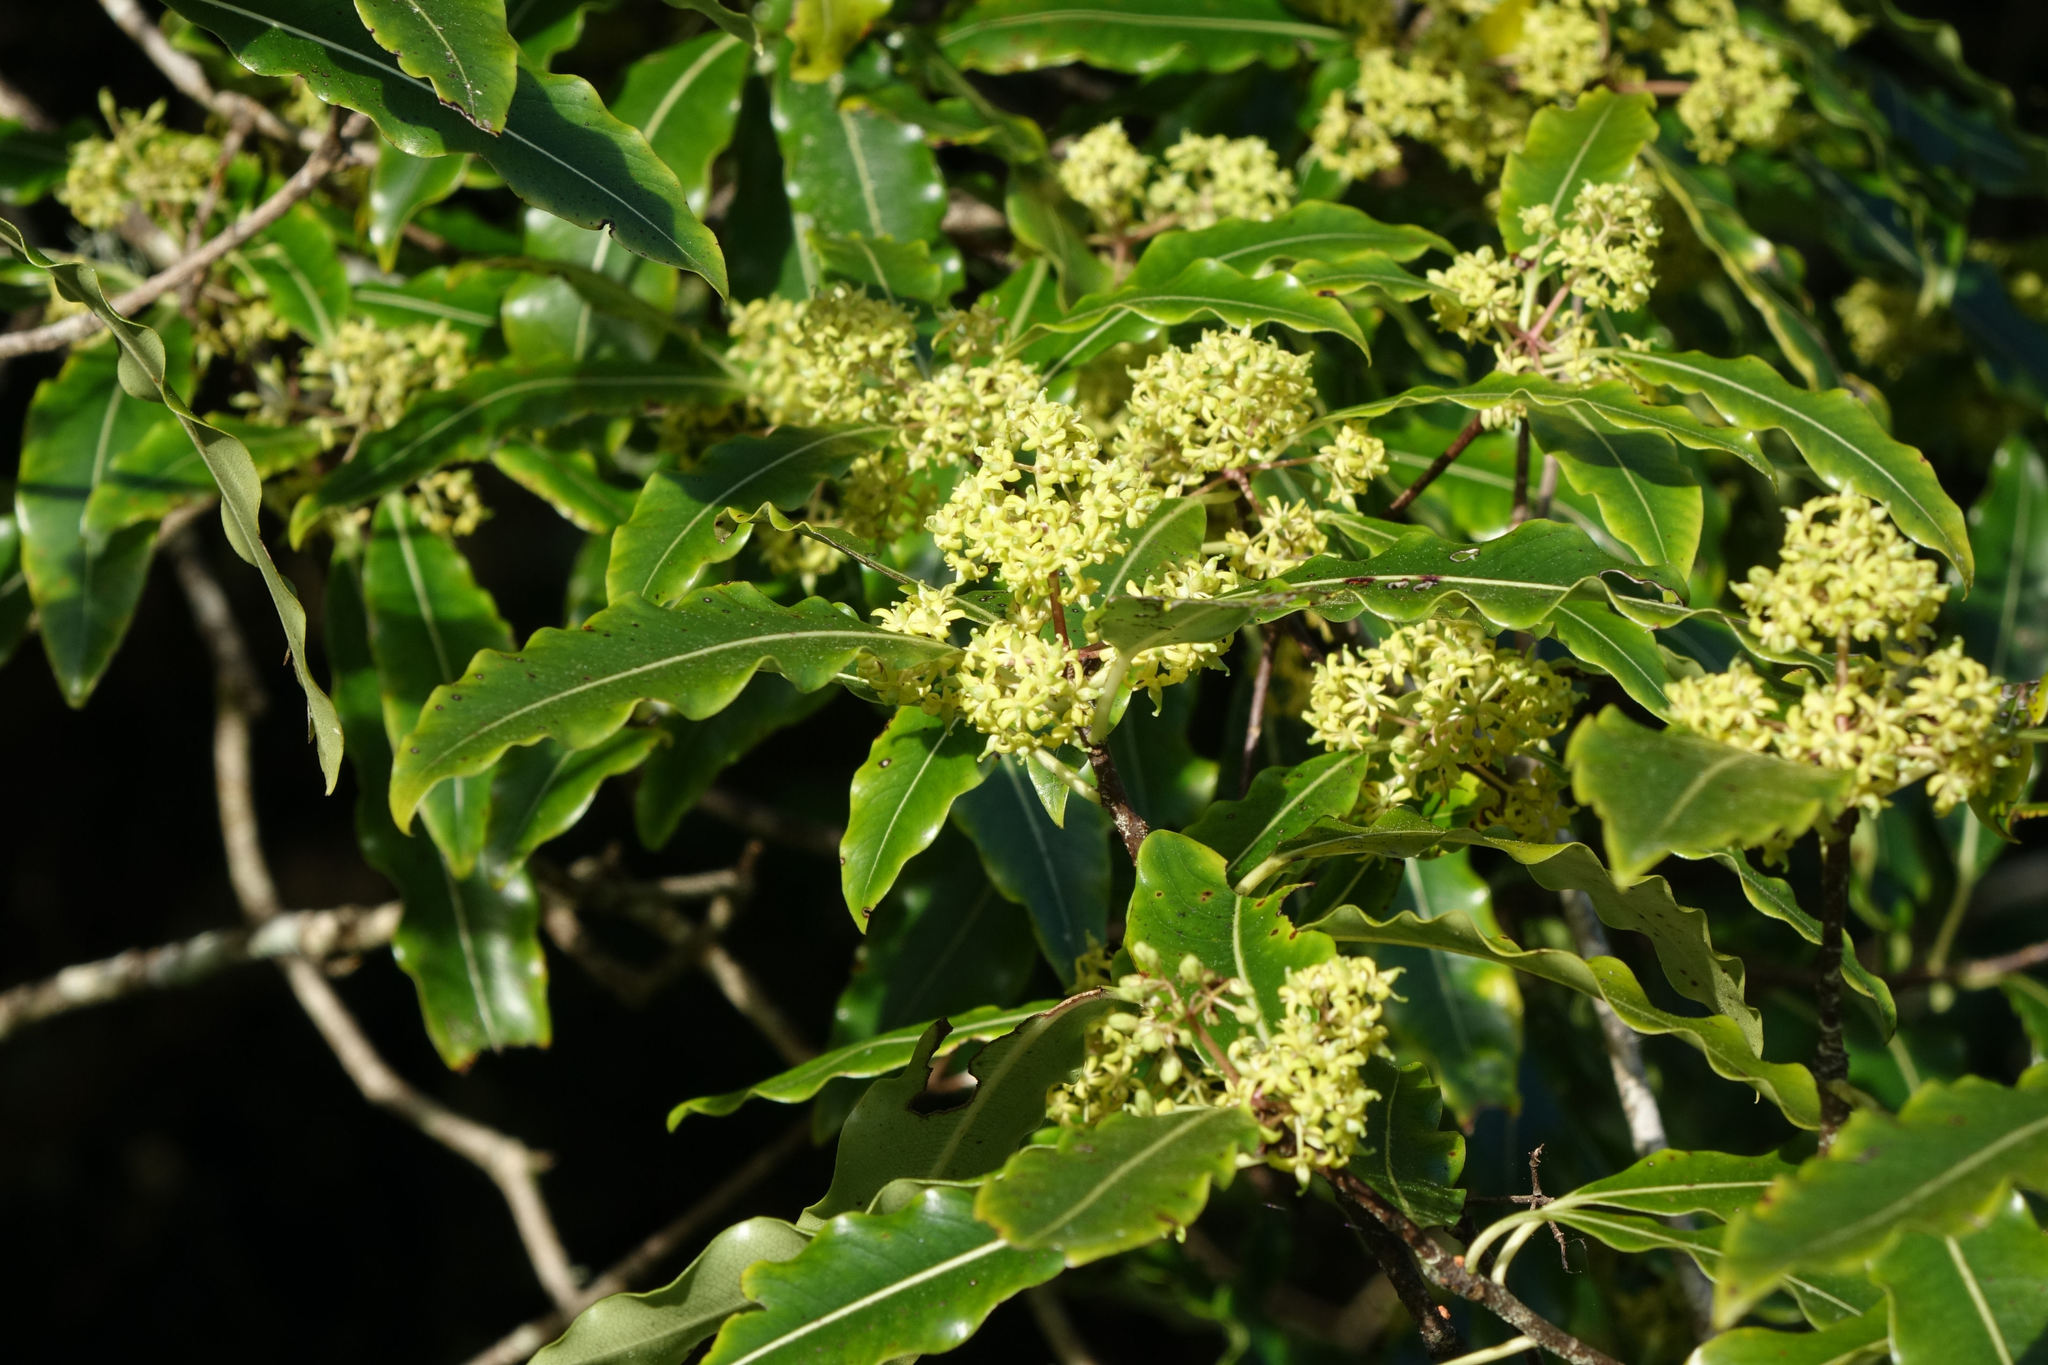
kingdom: Plantae
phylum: Tracheophyta
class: Magnoliopsida
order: Apiales
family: Pittosporaceae
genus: Pittosporum
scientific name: Pittosporum eugenioides
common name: Lemonwood
